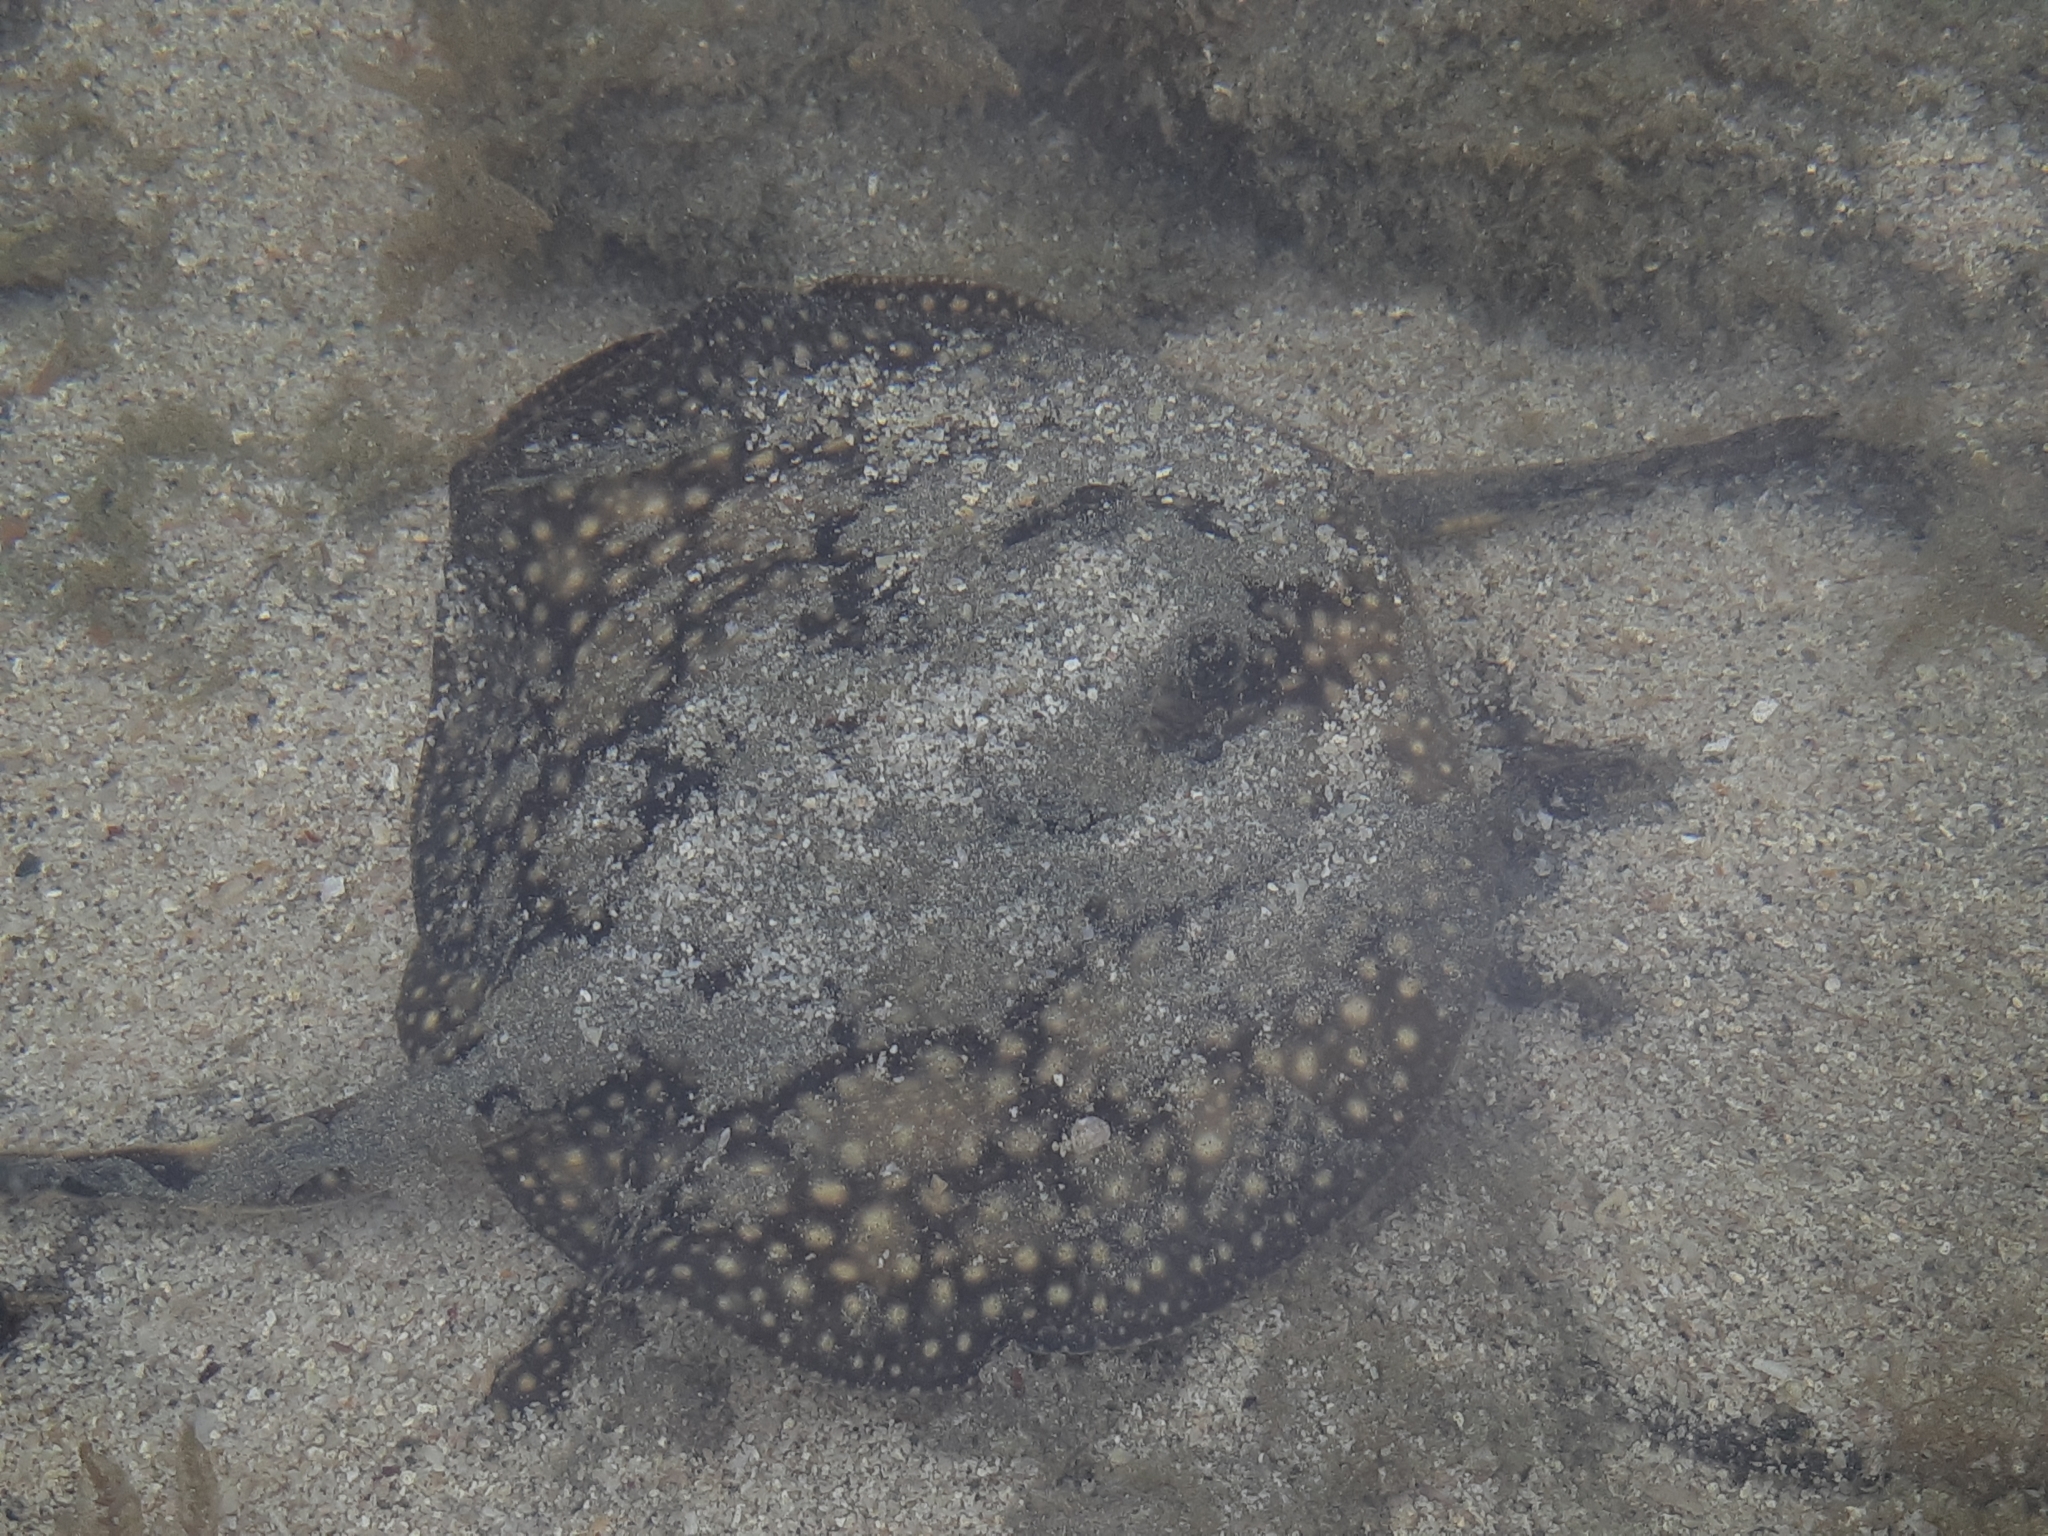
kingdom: Animalia
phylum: Chordata
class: Elasmobranchii
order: Myliobatiformes
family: Urotrygonidae
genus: Urobatis
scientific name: Urobatis tumbesensis
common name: Tumbes round stingray
